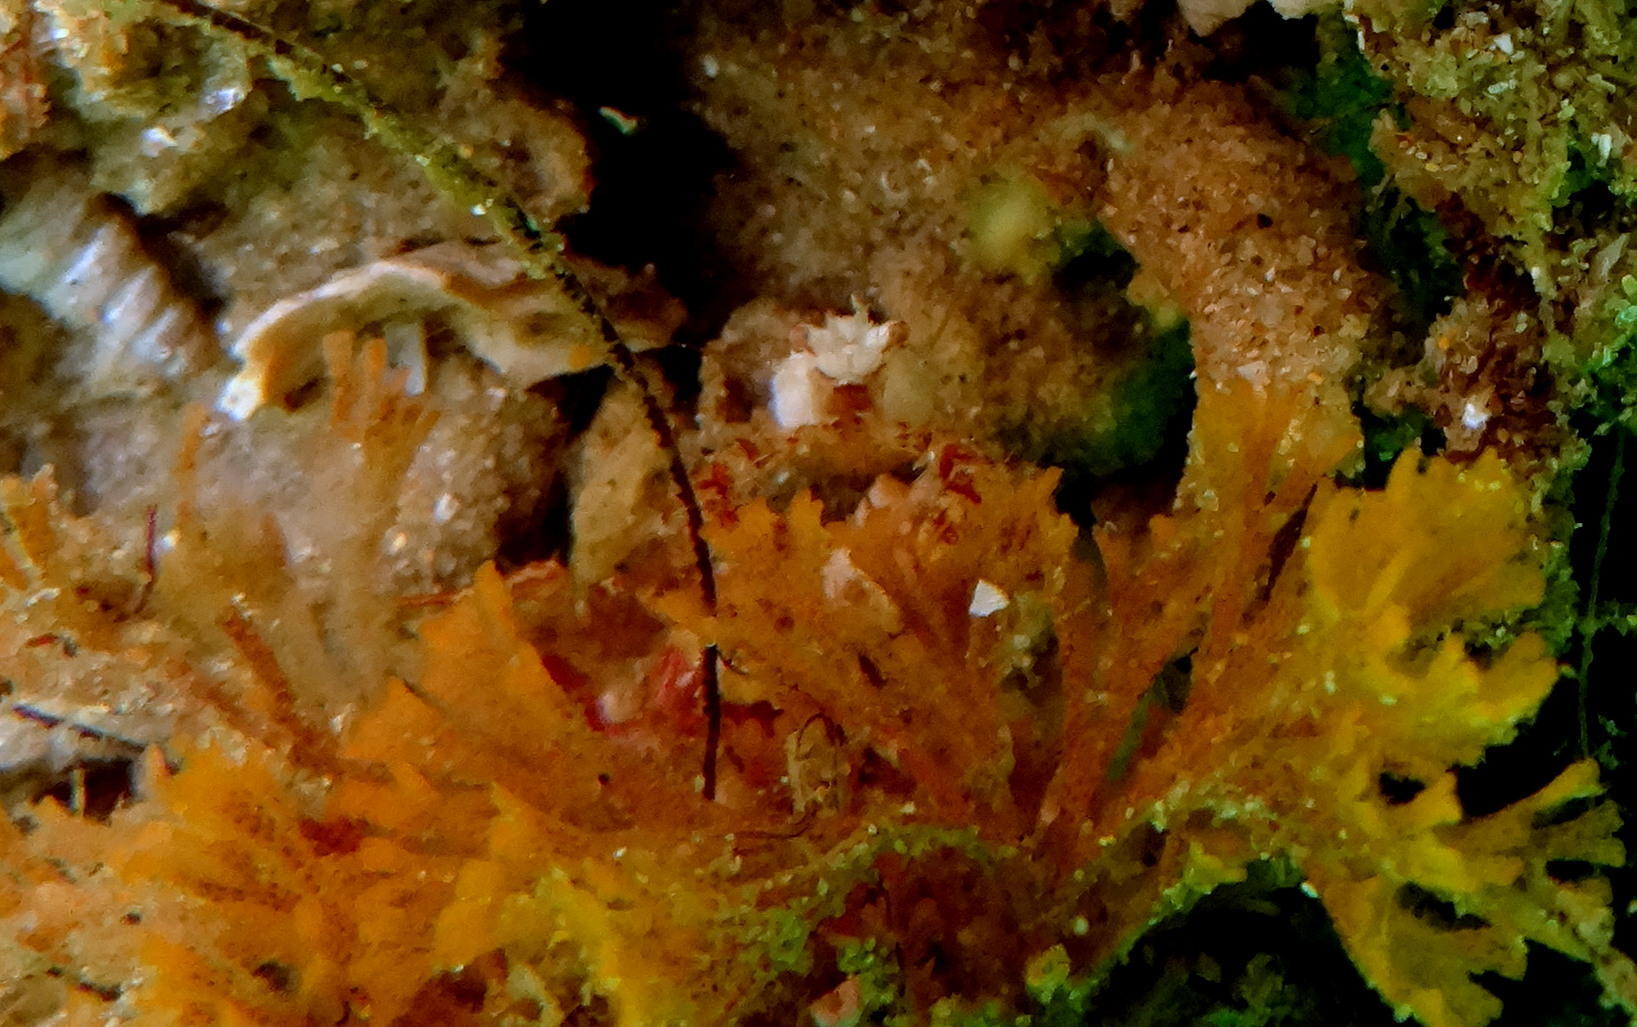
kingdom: Animalia
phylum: Arthropoda
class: Malacostraca
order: Decapoda
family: Inachidae
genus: Achaeopsis
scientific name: Achaeopsis spinulosa
